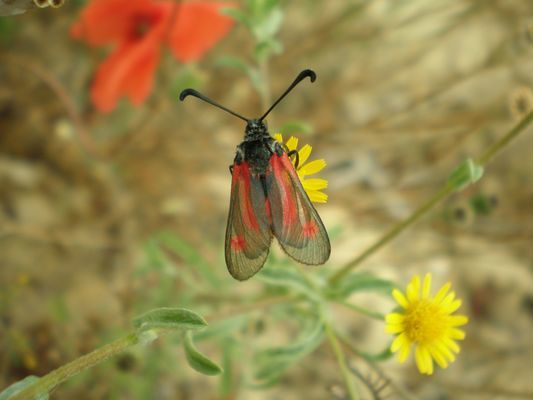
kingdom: Animalia
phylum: Arthropoda
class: Insecta
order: Lepidoptera
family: Zygaenidae
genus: Zygaena
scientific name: Zygaena sarpedon
